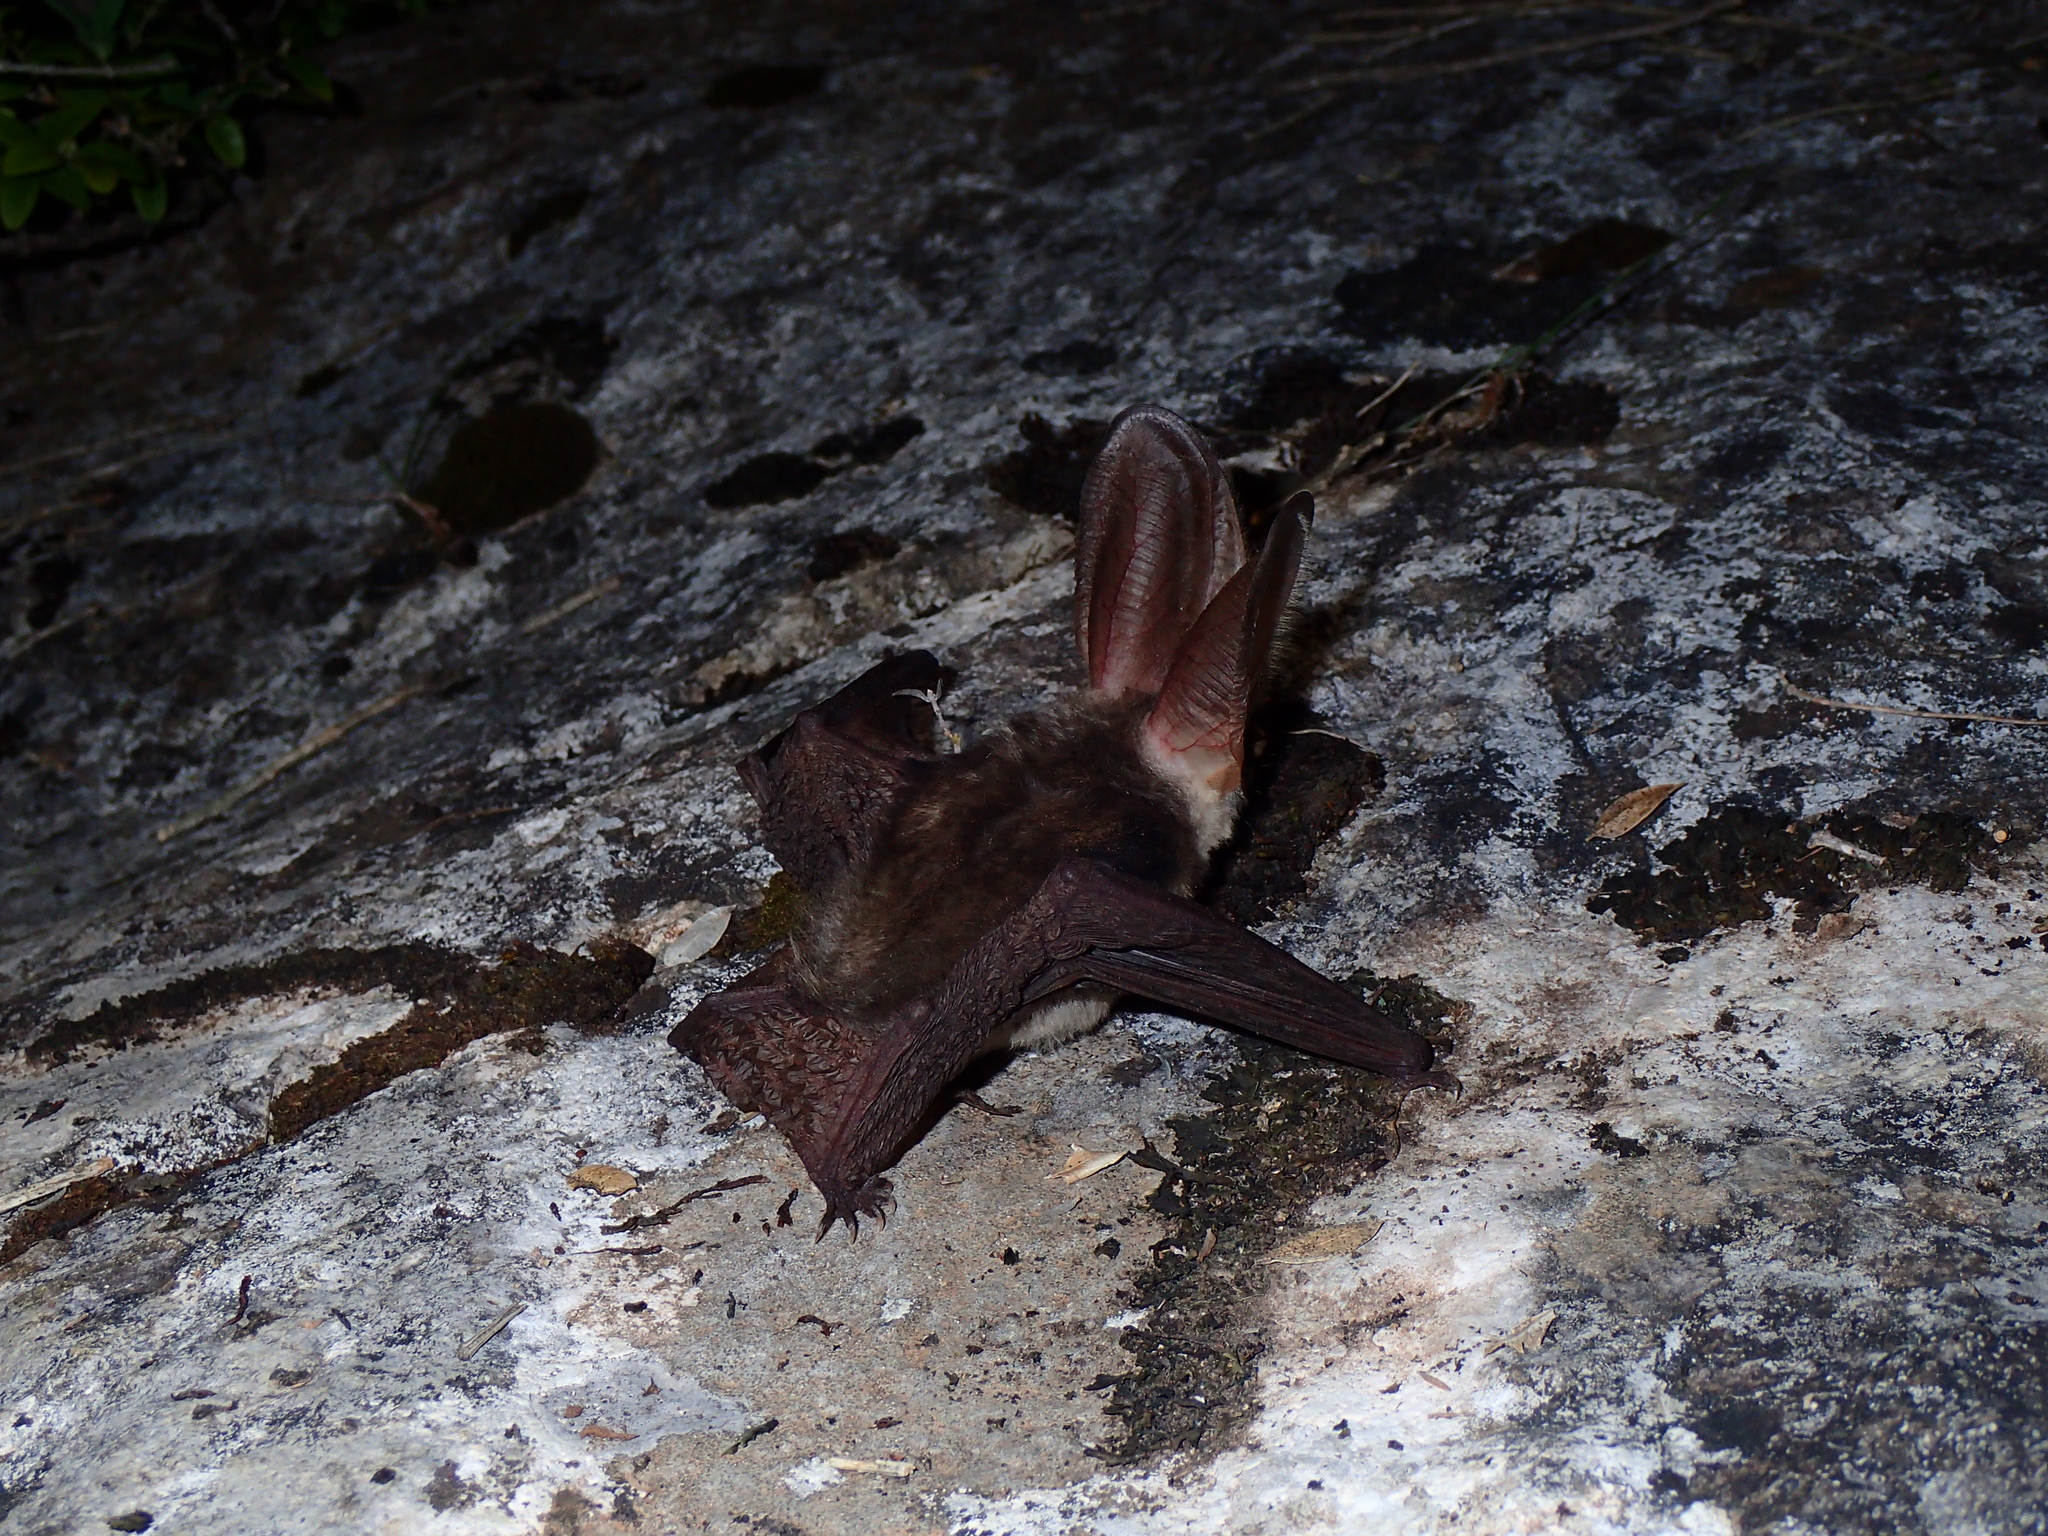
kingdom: Animalia
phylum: Chordata
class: Mammalia
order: Chiroptera
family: Vespertilionidae
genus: Plecotus
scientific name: Plecotus austriacus
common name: Grey long-eared bat
